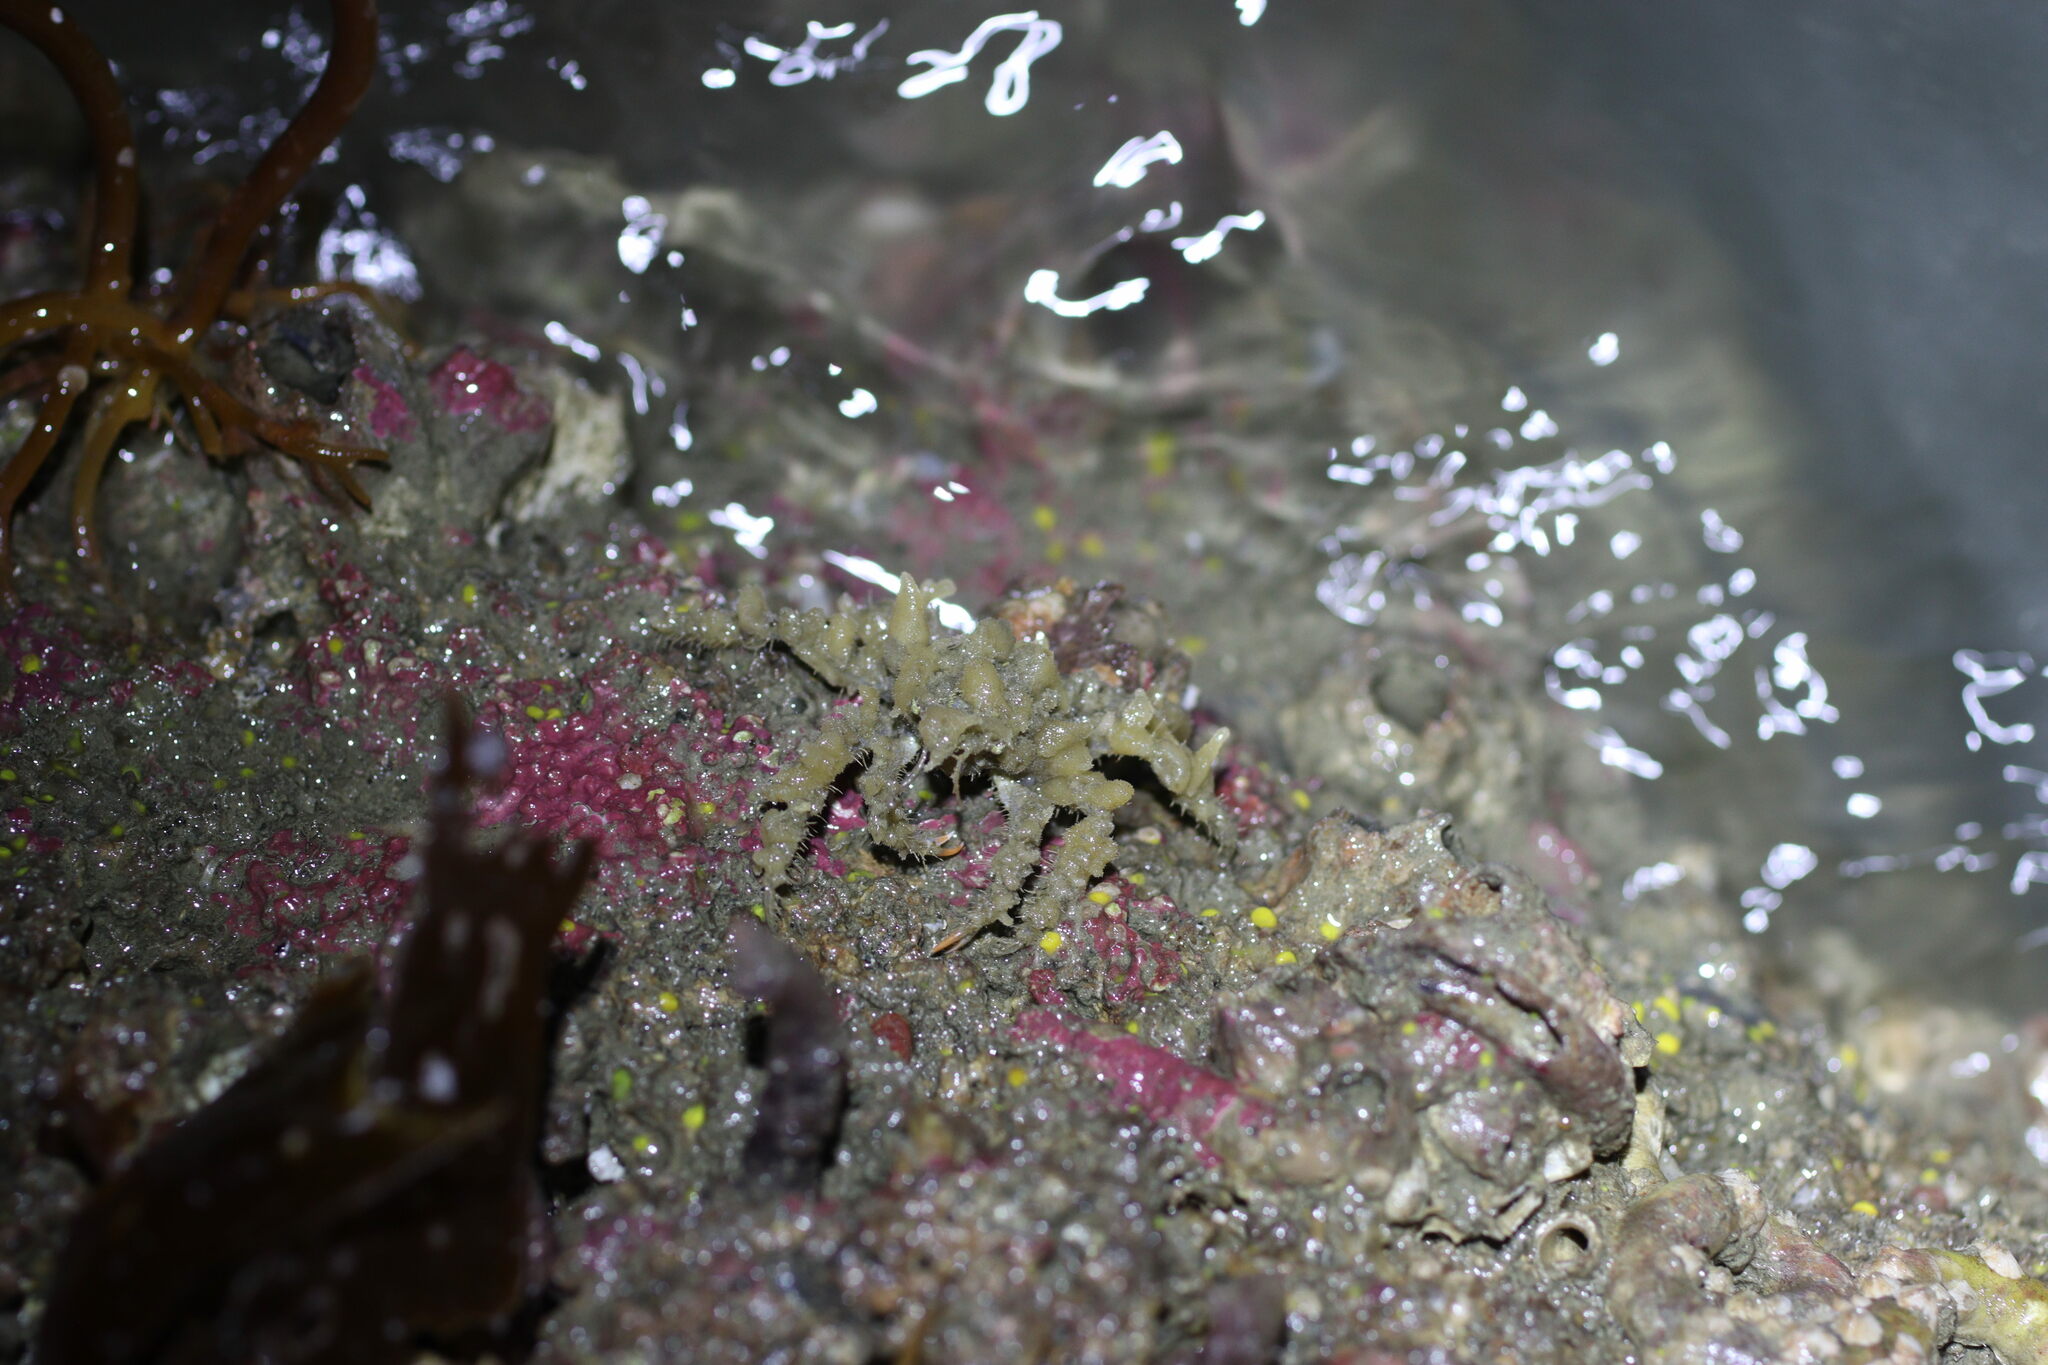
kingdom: Animalia
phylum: Arthropoda
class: Malacostraca
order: Decapoda
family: Oregoniidae
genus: Oregonia
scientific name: Oregonia gracilis
